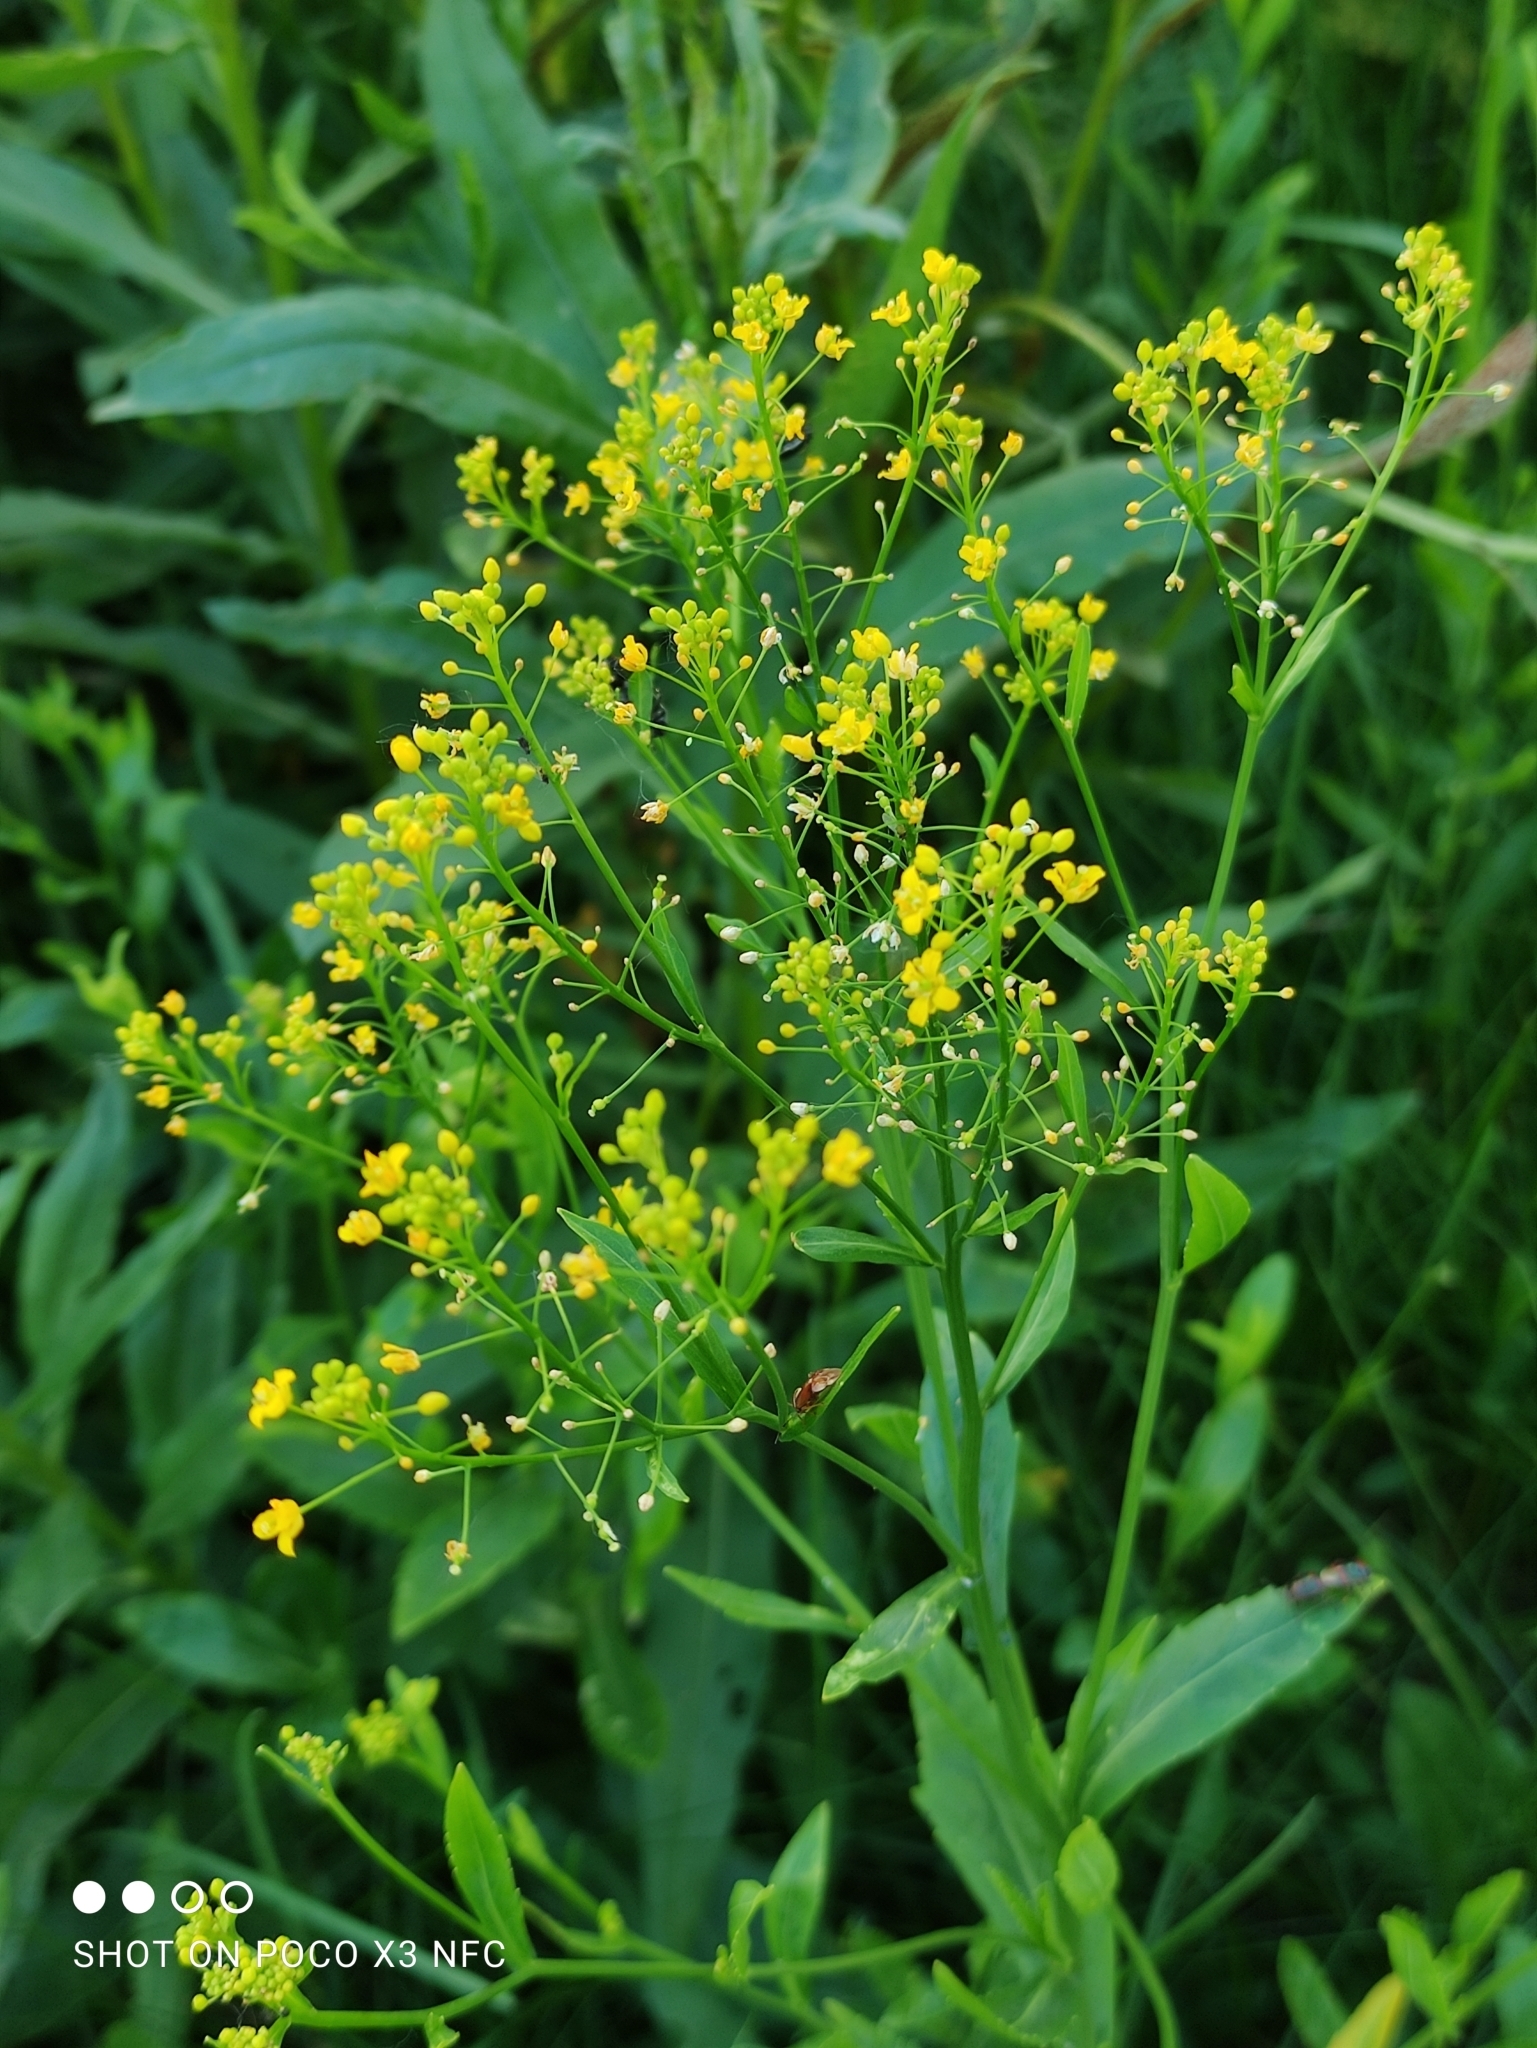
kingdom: Plantae
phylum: Tracheophyta
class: Magnoliopsida
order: Brassicales
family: Brassicaceae
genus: Bunias
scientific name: Bunias orientalis
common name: Warty-cabbage
